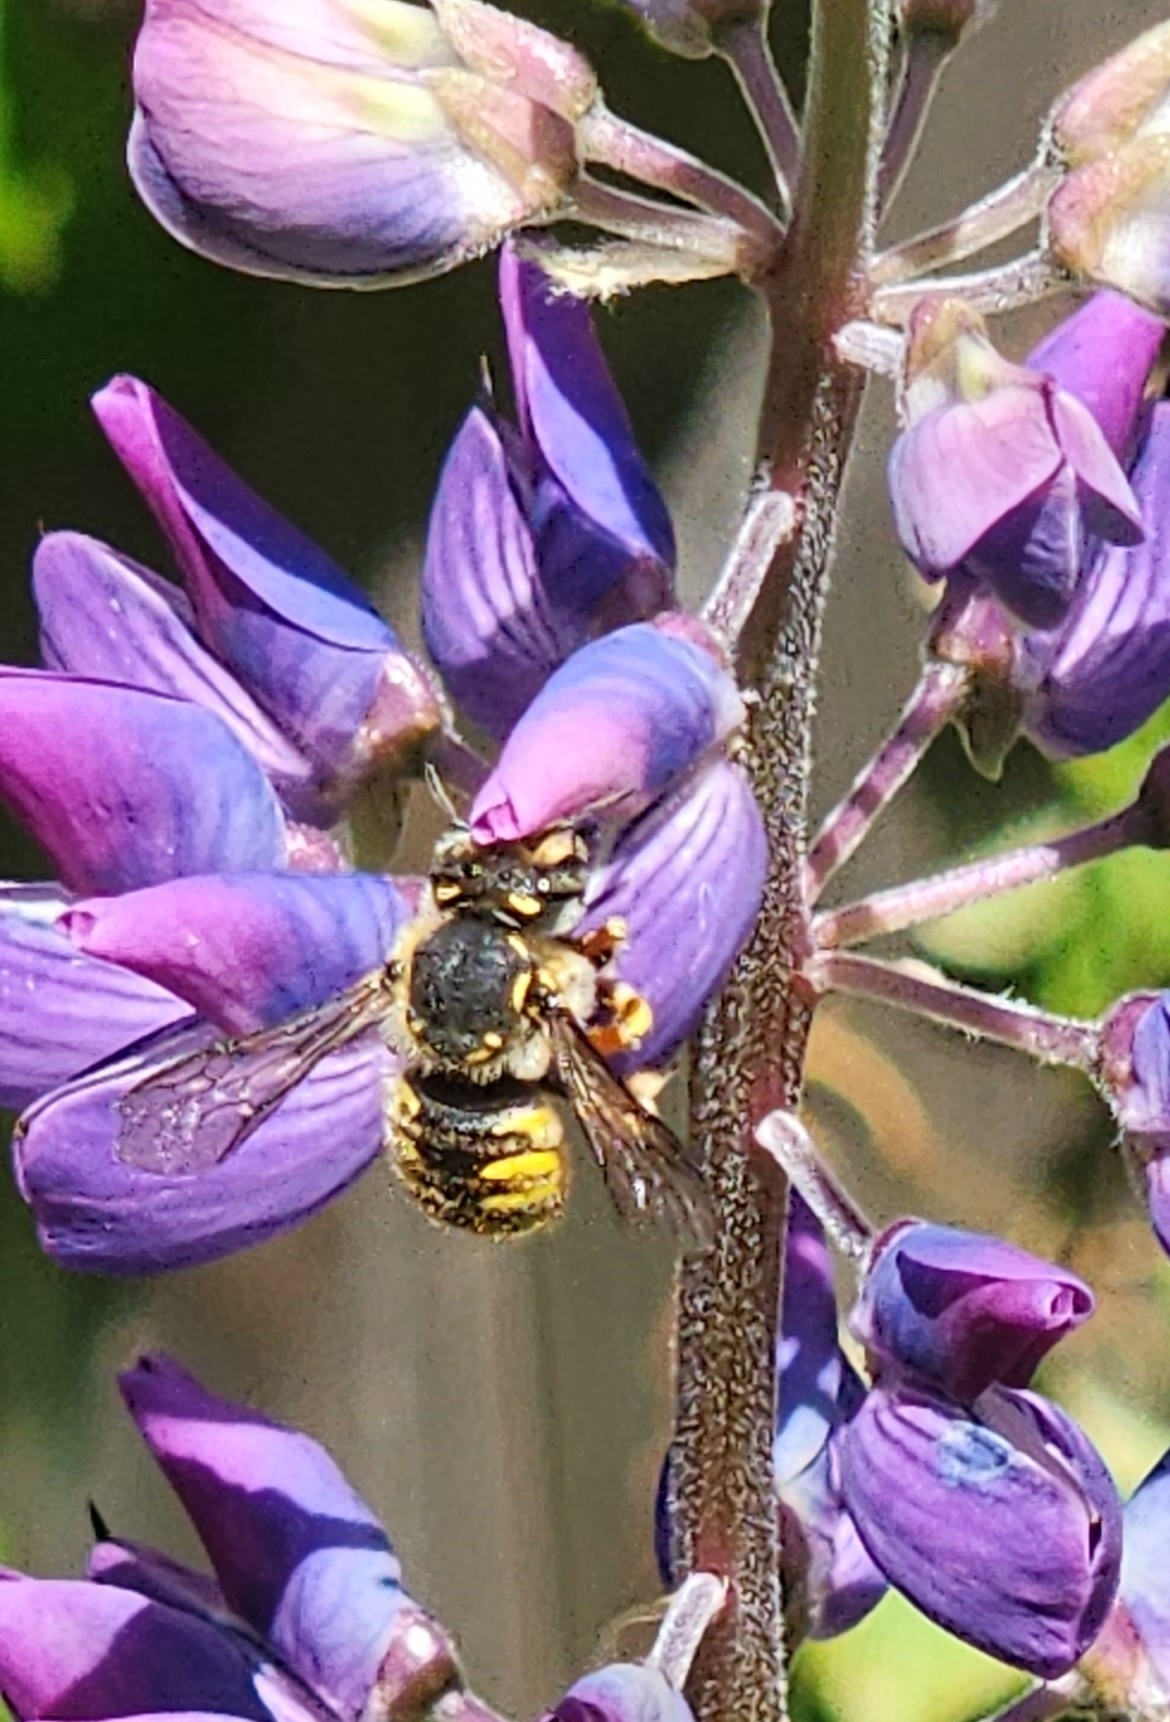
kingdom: Animalia
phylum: Arthropoda
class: Insecta
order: Hymenoptera
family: Megachilidae
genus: Anthidium
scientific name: Anthidium manicatum
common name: Wool carder bee
